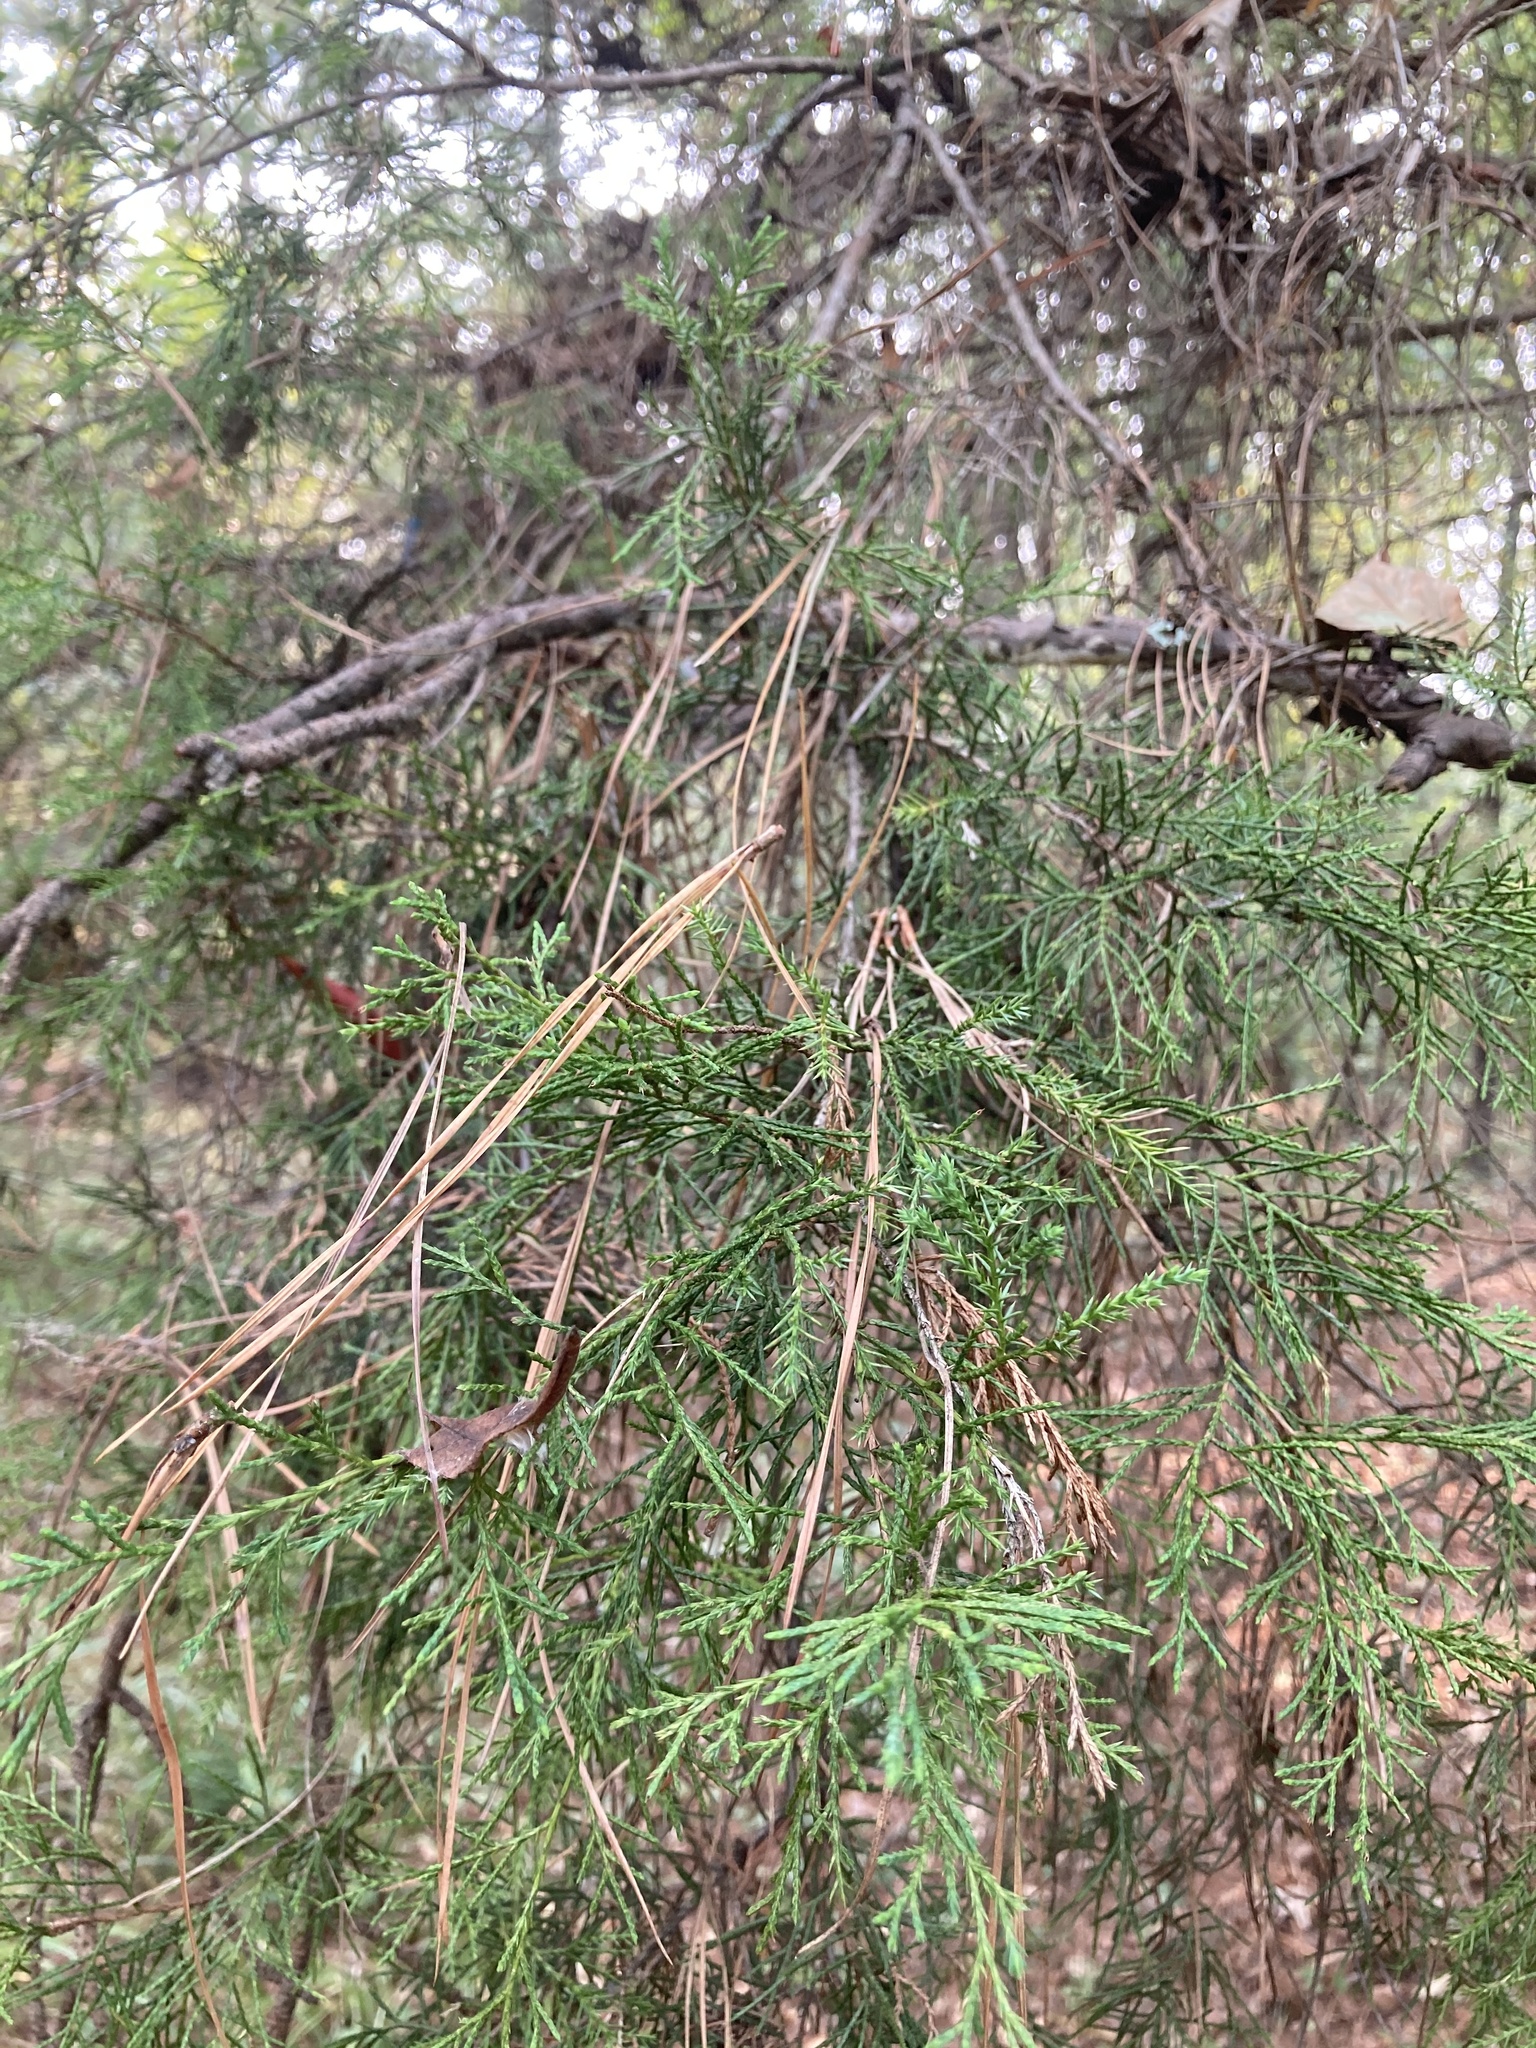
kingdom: Plantae
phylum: Tracheophyta
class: Pinopsida
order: Pinales
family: Cupressaceae
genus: Juniperus
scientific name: Juniperus virginiana
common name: Red juniper
